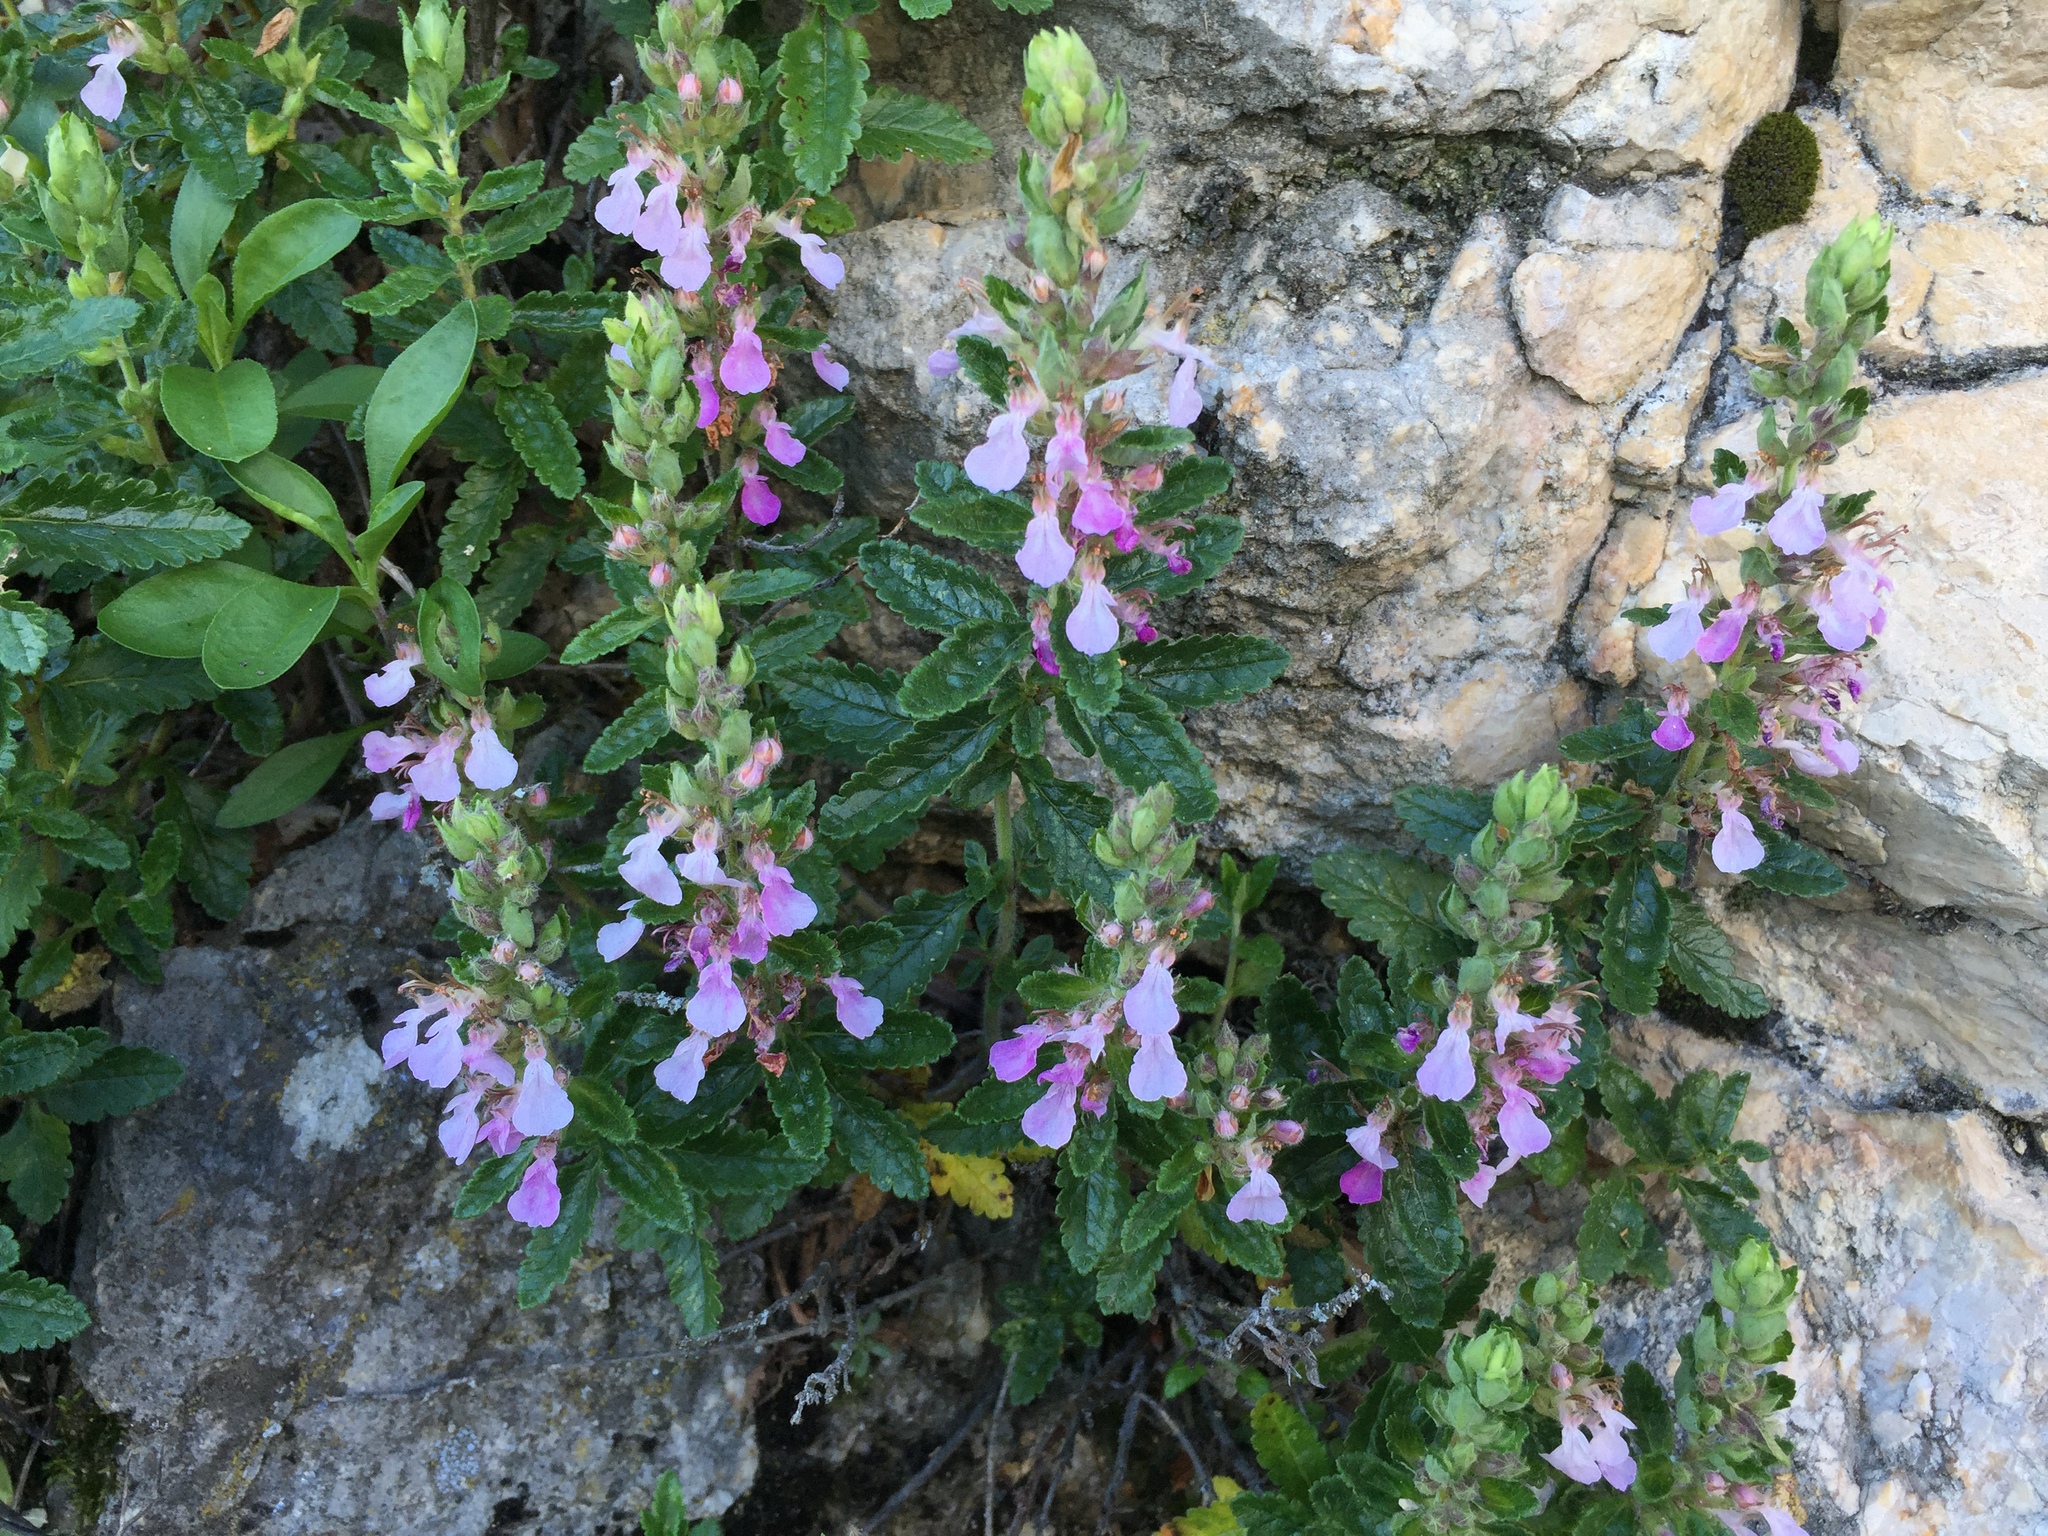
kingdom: Plantae
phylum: Tracheophyta
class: Magnoliopsida
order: Lamiales
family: Lamiaceae
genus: Teucrium
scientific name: Teucrium chamaedrys
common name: Wall germander
